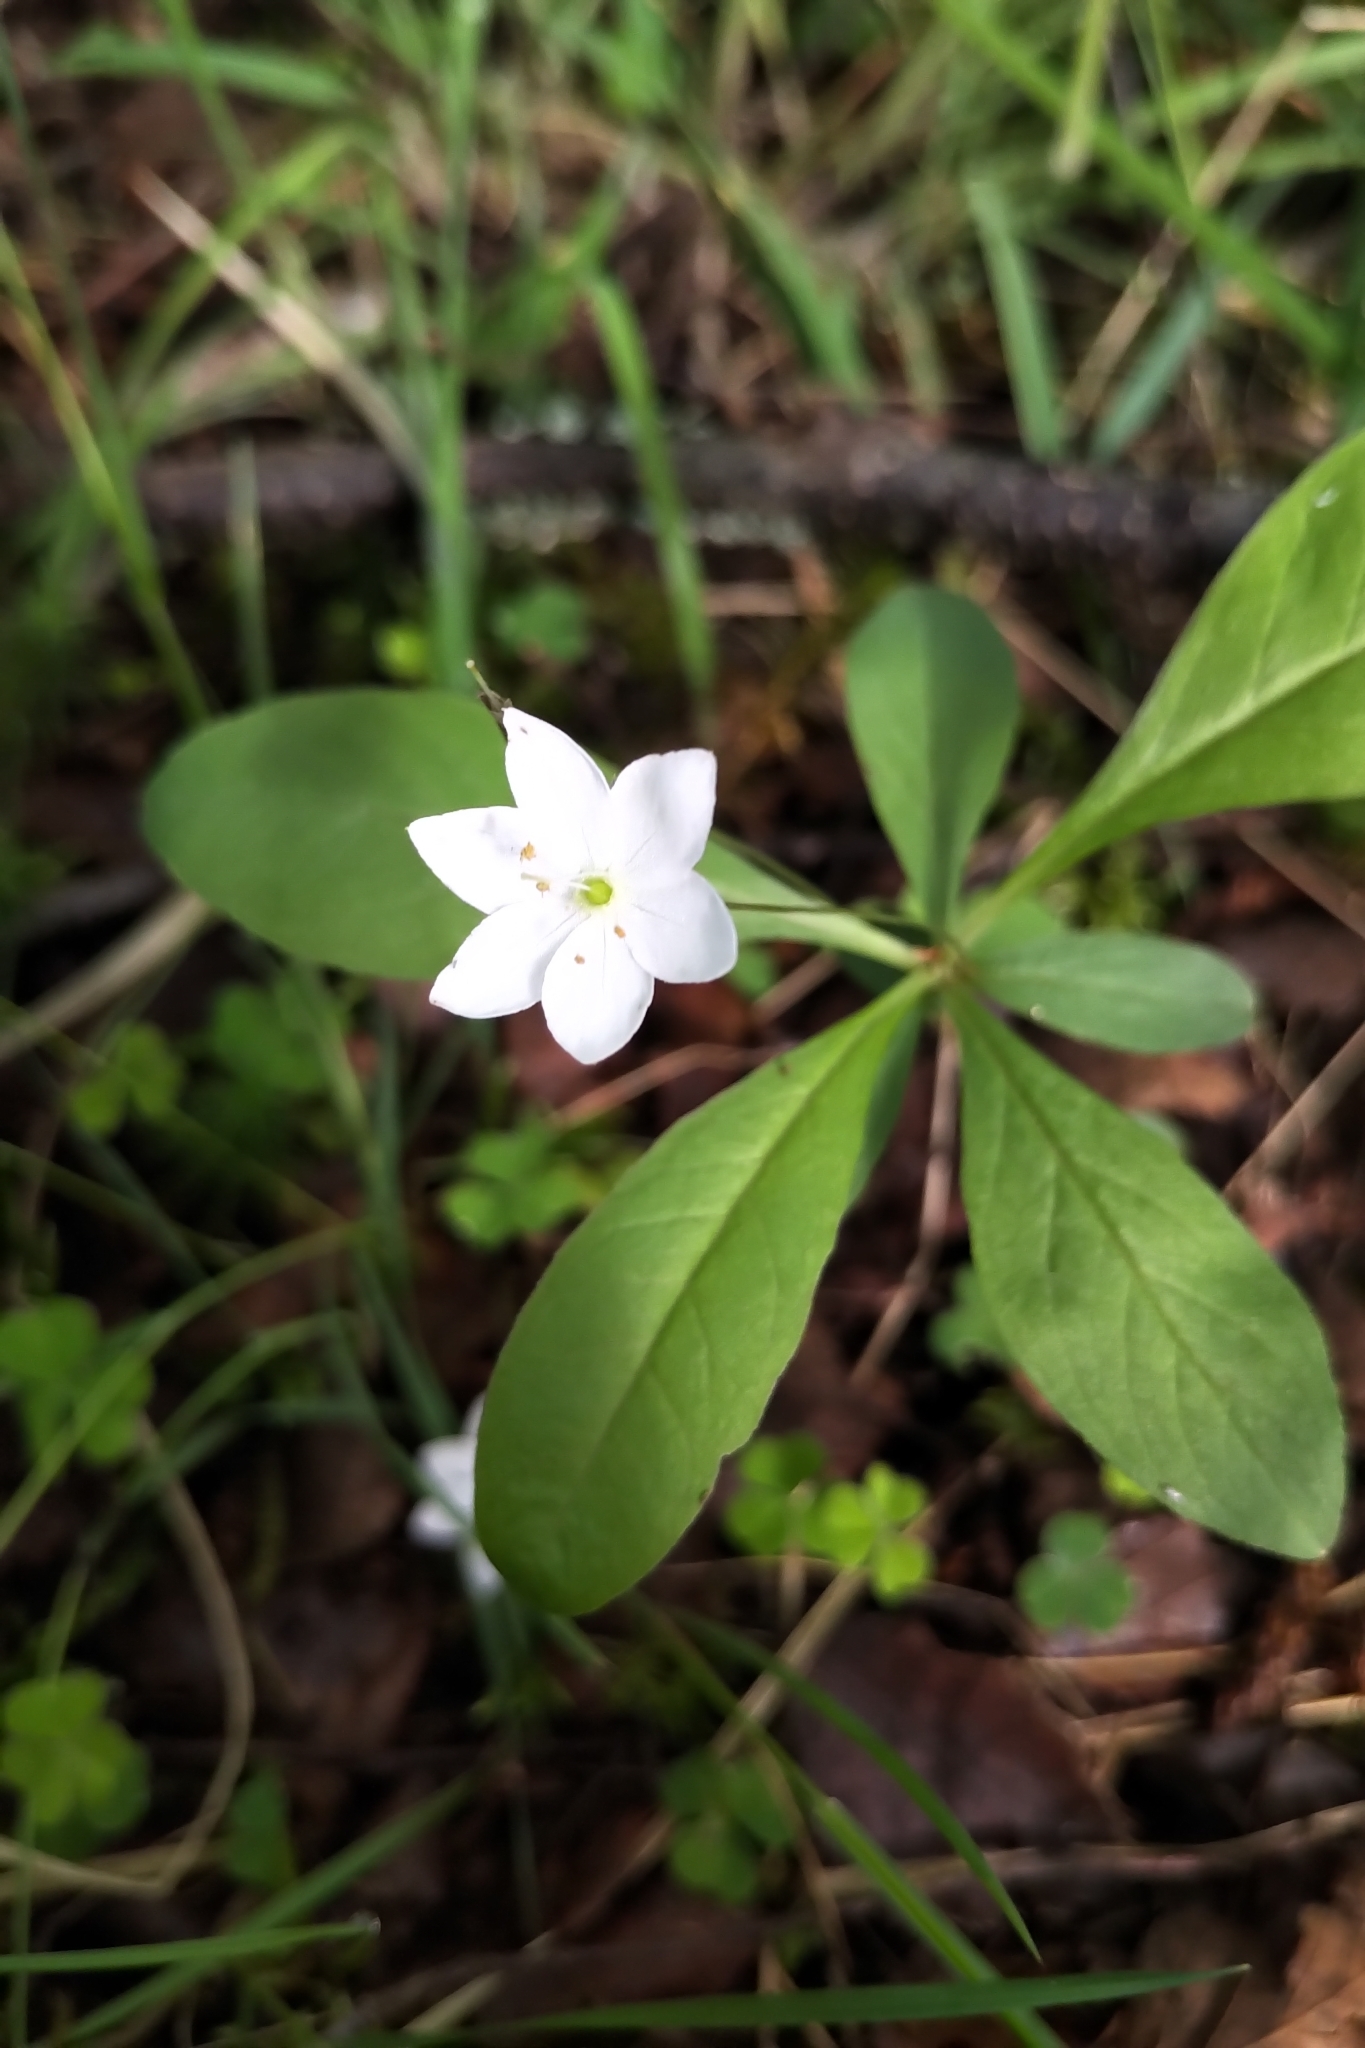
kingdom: Plantae
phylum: Tracheophyta
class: Magnoliopsida
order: Ericales
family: Primulaceae
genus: Lysimachia
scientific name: Lysimachia europaea
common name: Arctic starflower
